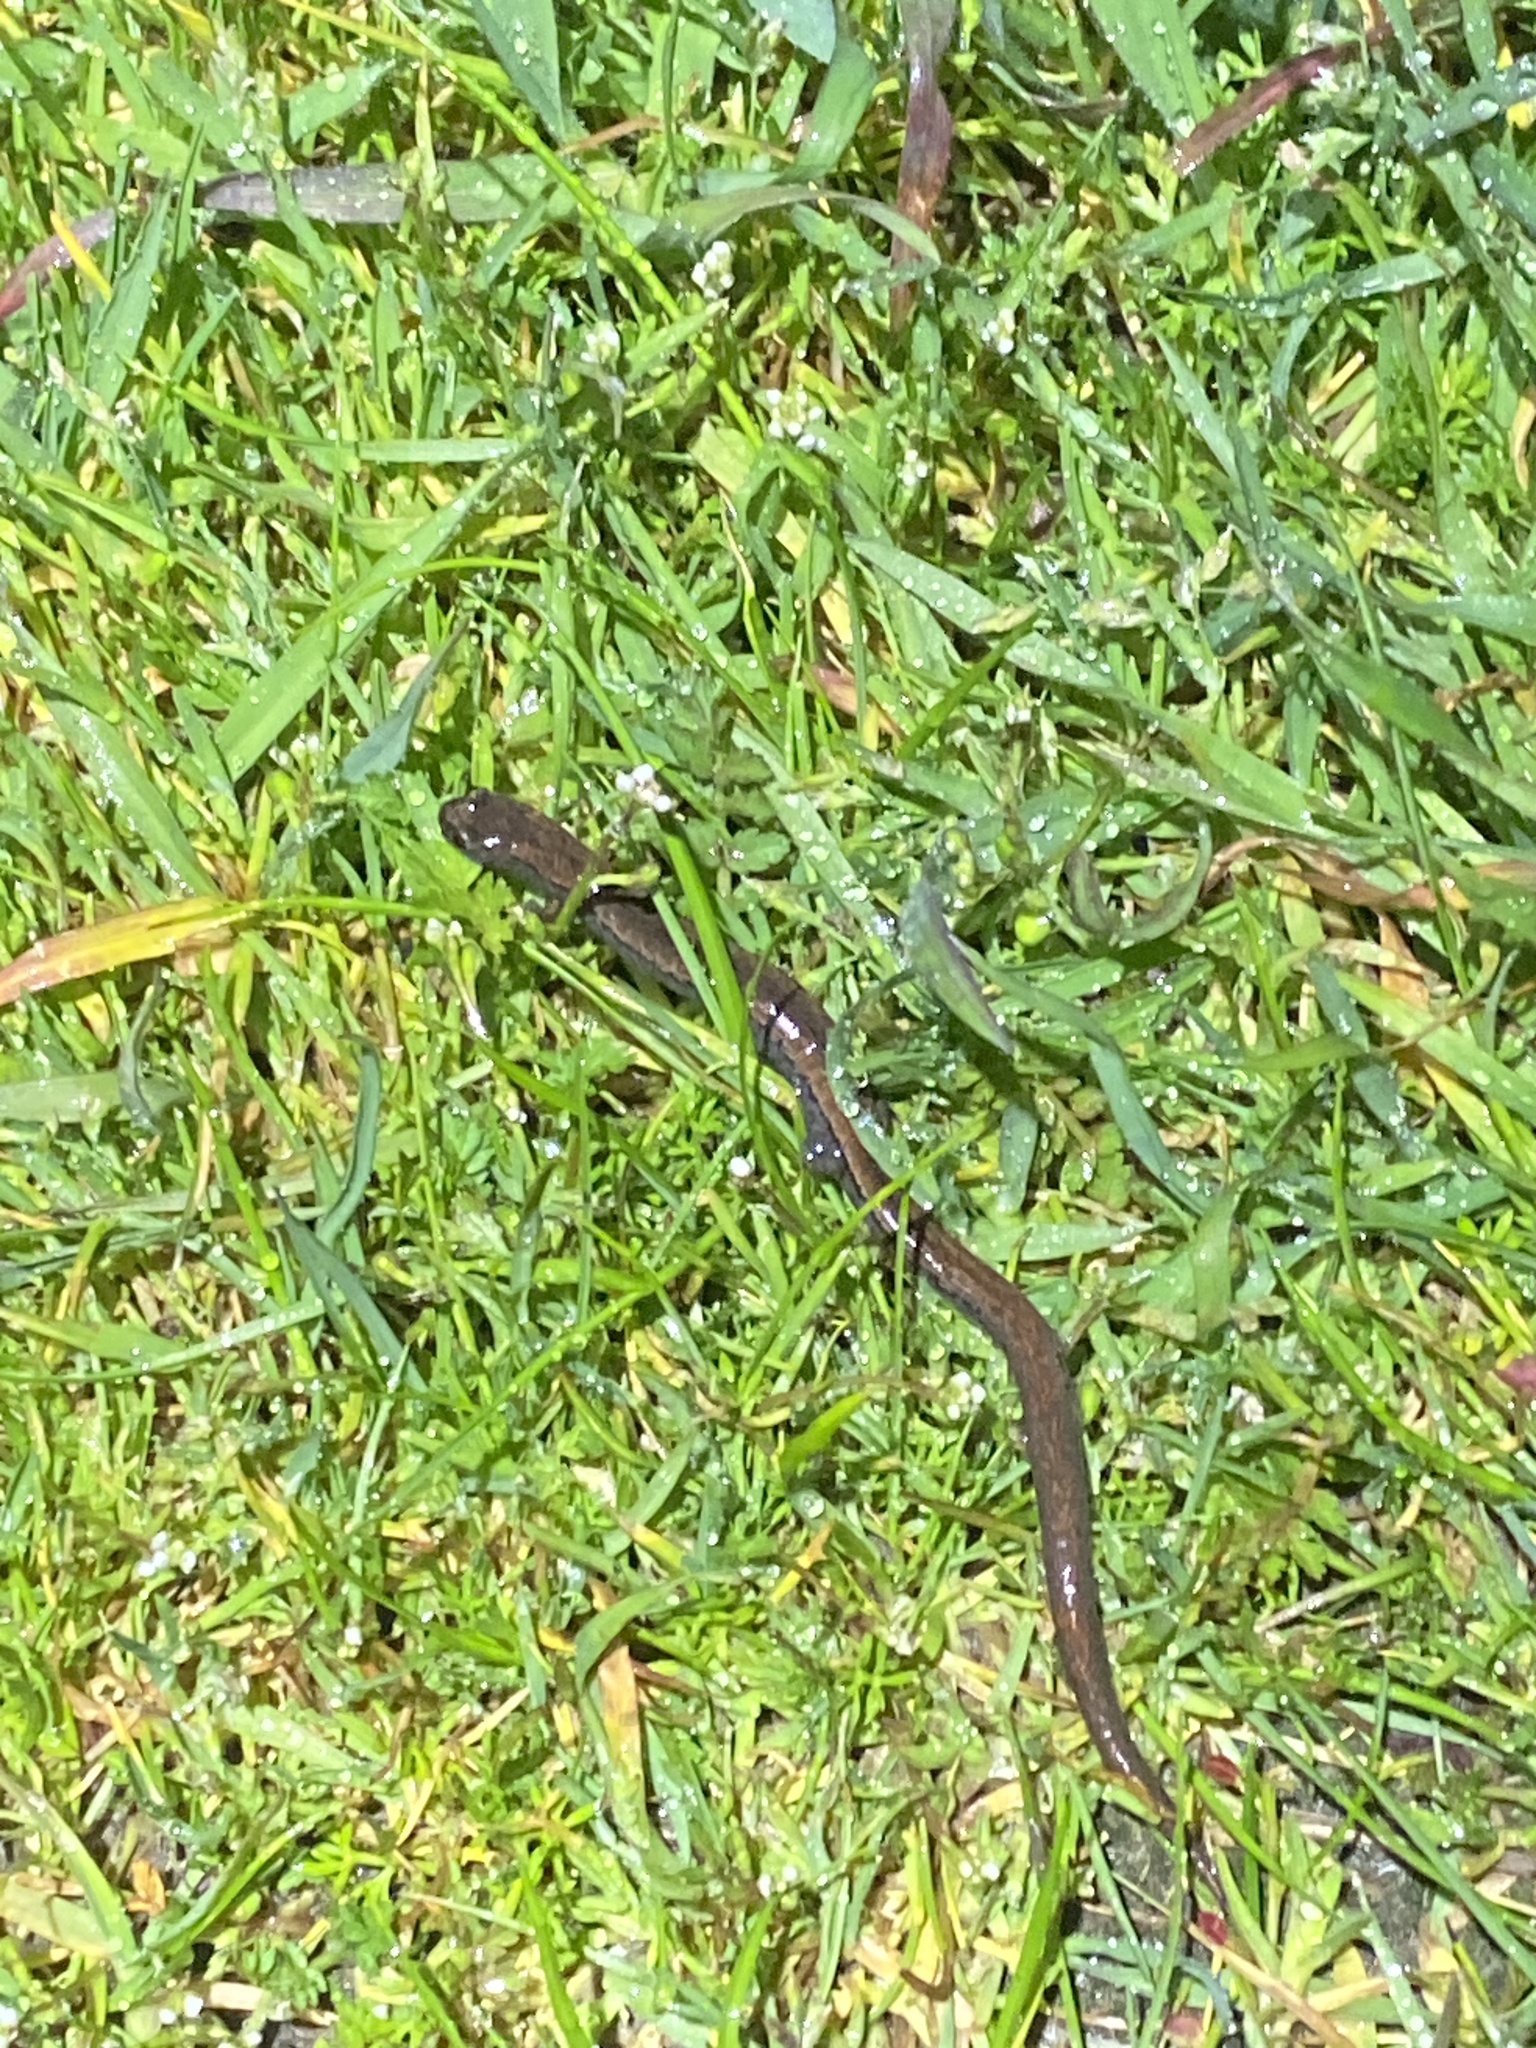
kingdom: Animalia
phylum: Chordata
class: Amphibia
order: Caudata
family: Plethodontidae
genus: Batrachoseps
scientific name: Batrachoseps attenuatus
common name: California slender salamander
